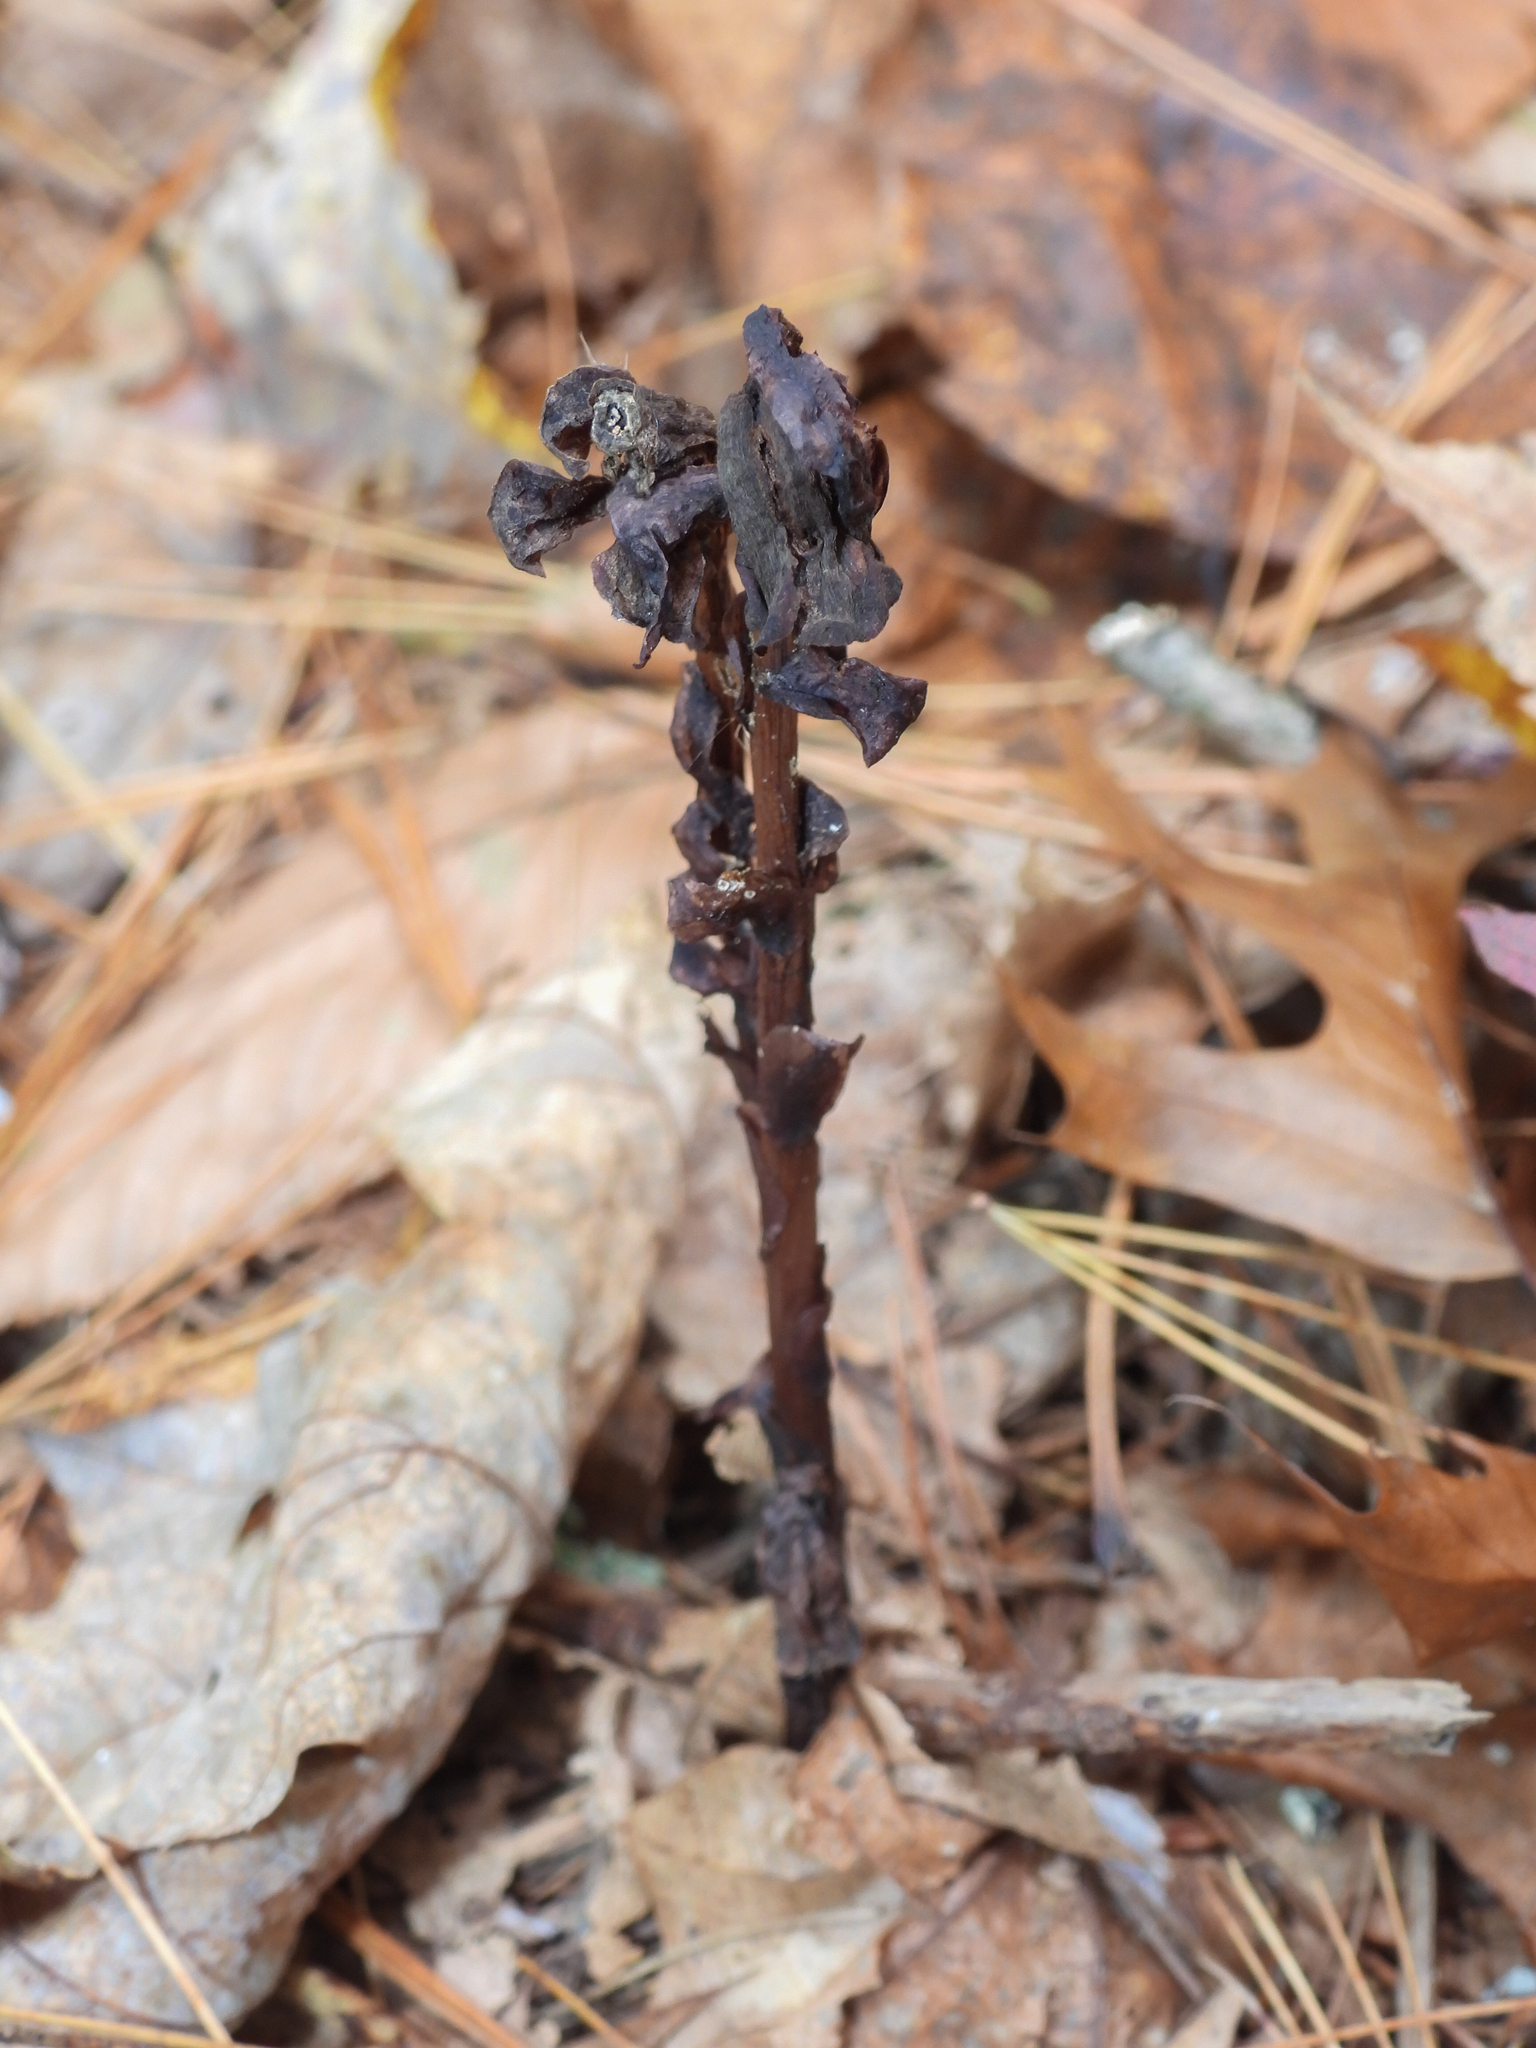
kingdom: Plantae
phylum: Tracheophyta
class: Magnoliopsida
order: Ericales
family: Ericaceae
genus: Hypopitys
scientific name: Hypopitys monotropa
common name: Yellow bird's-nest
